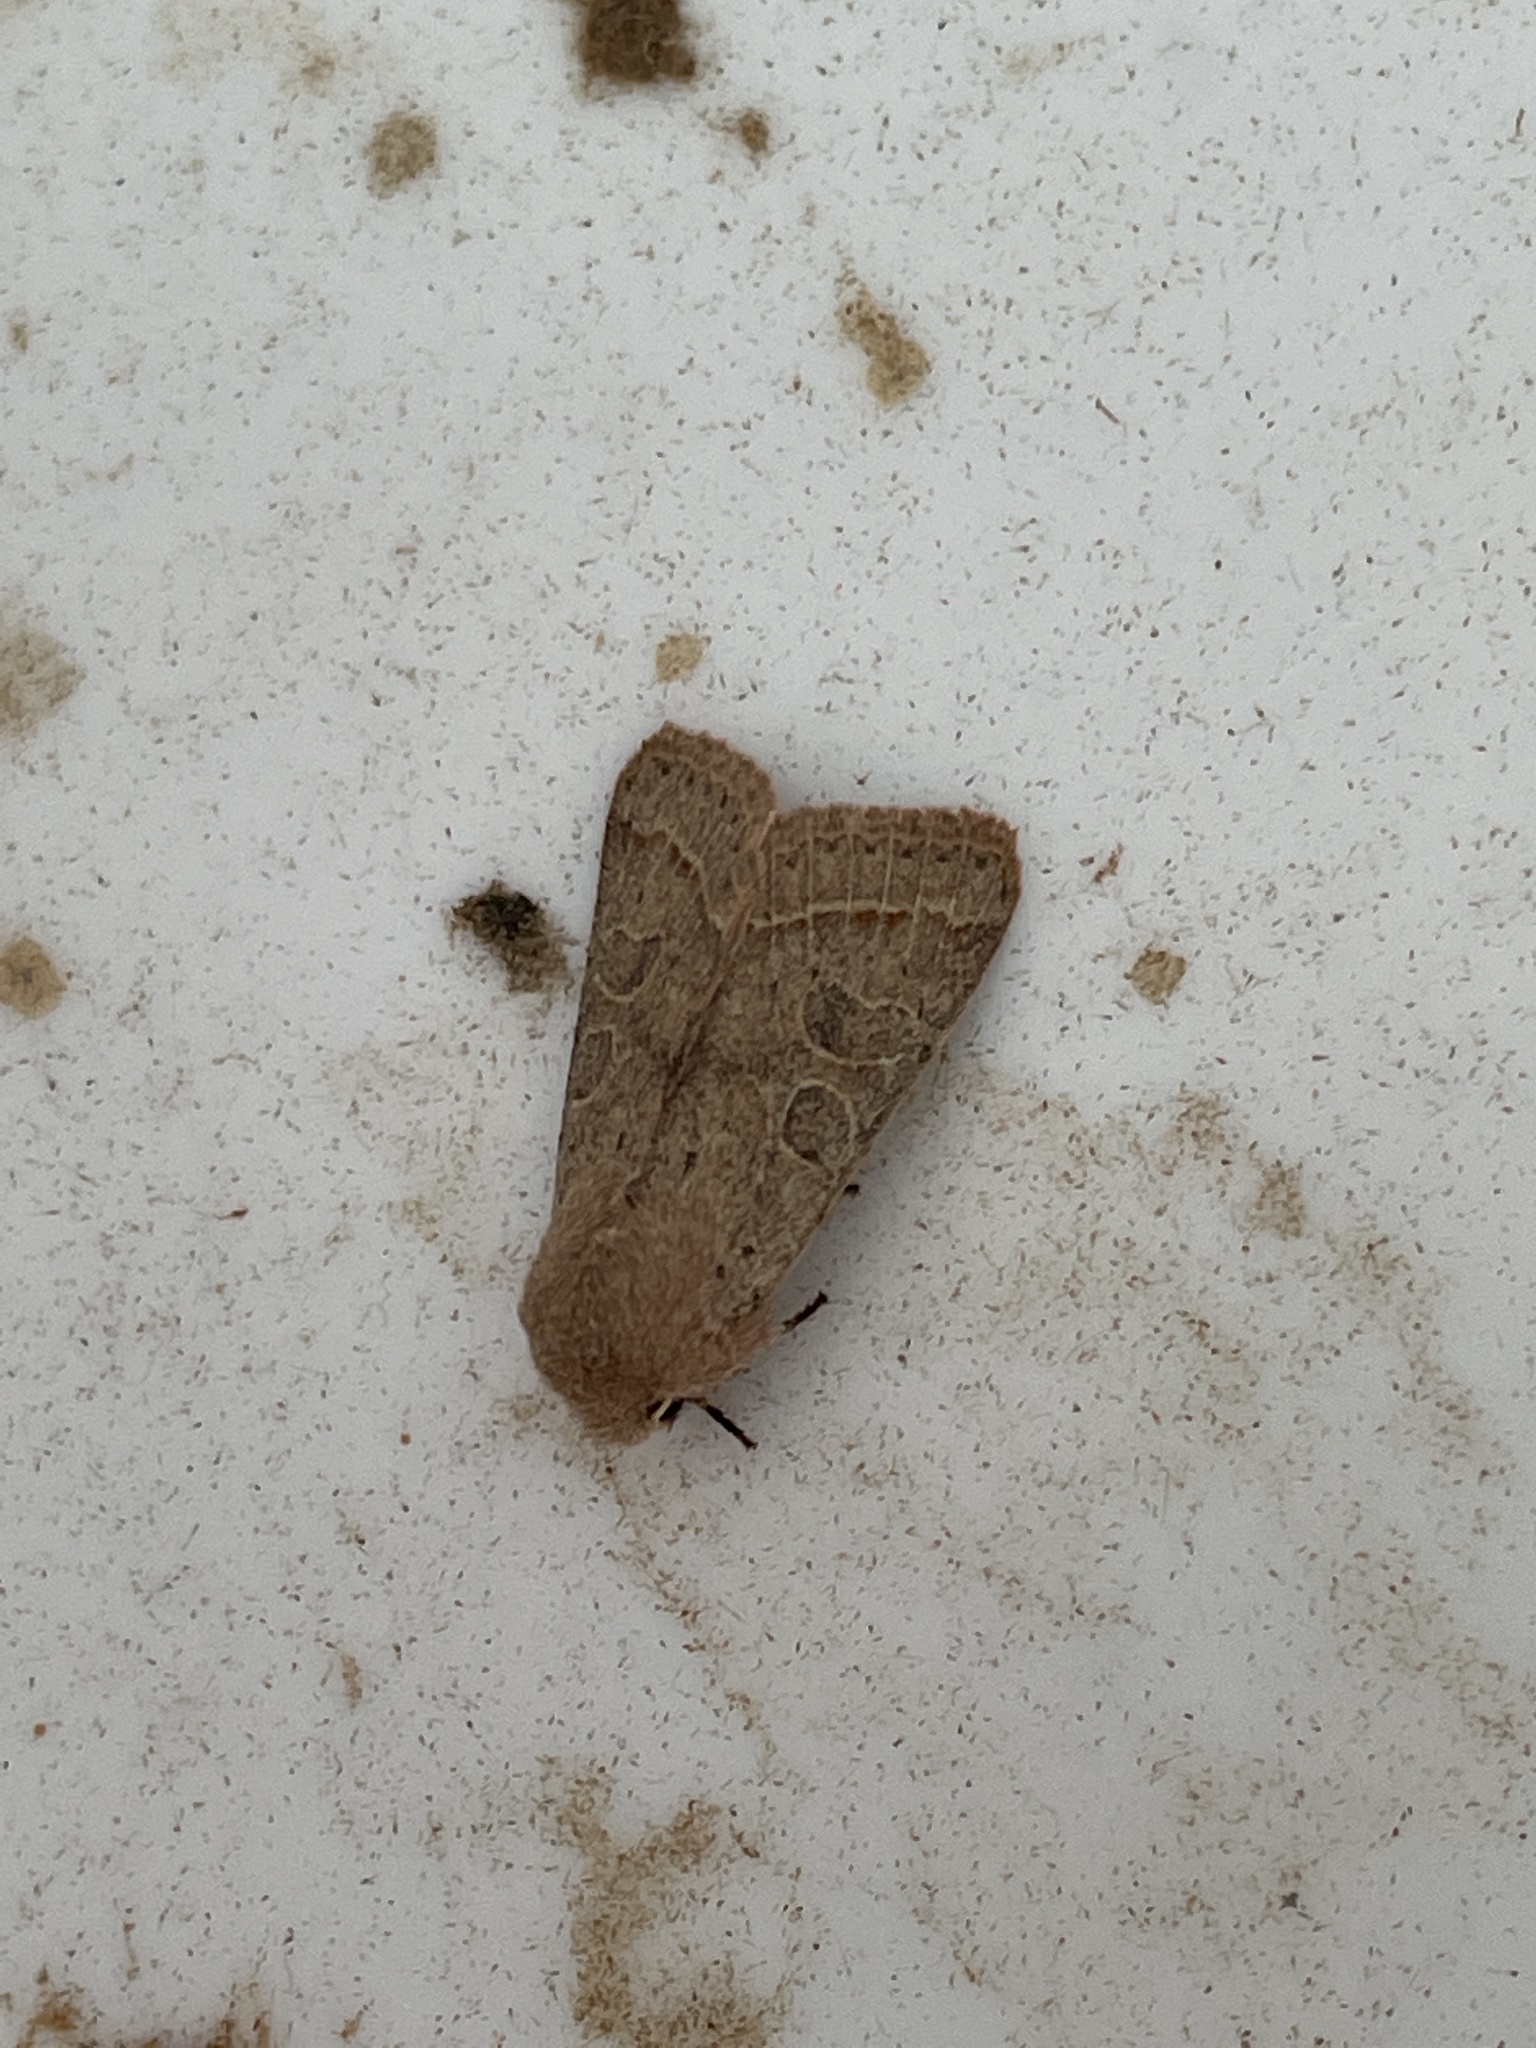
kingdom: Animalia
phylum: Arthropoda
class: Insecta
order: Lepidoptera
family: Noctuidae
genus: Orthosia
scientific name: Orthosia cerasi
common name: Common quaker
